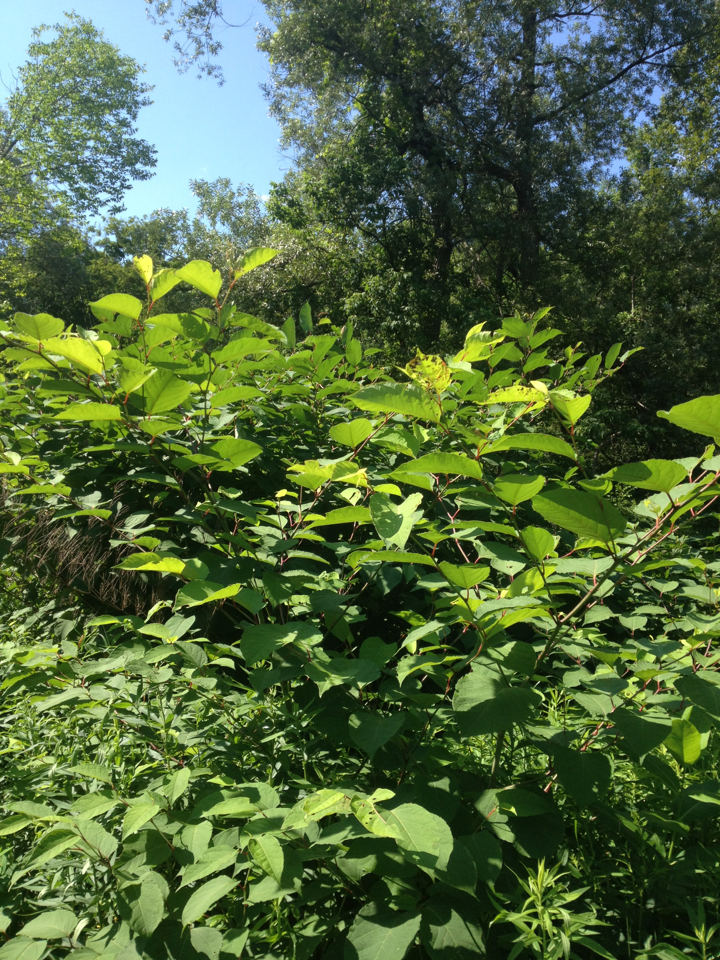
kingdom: Plantae
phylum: Tracheophyta
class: Magnoliopsida
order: Caryophyllales
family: Polygonaceae
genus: Reynoutria
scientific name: Reynoutria japonica
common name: Japanese knotweed
